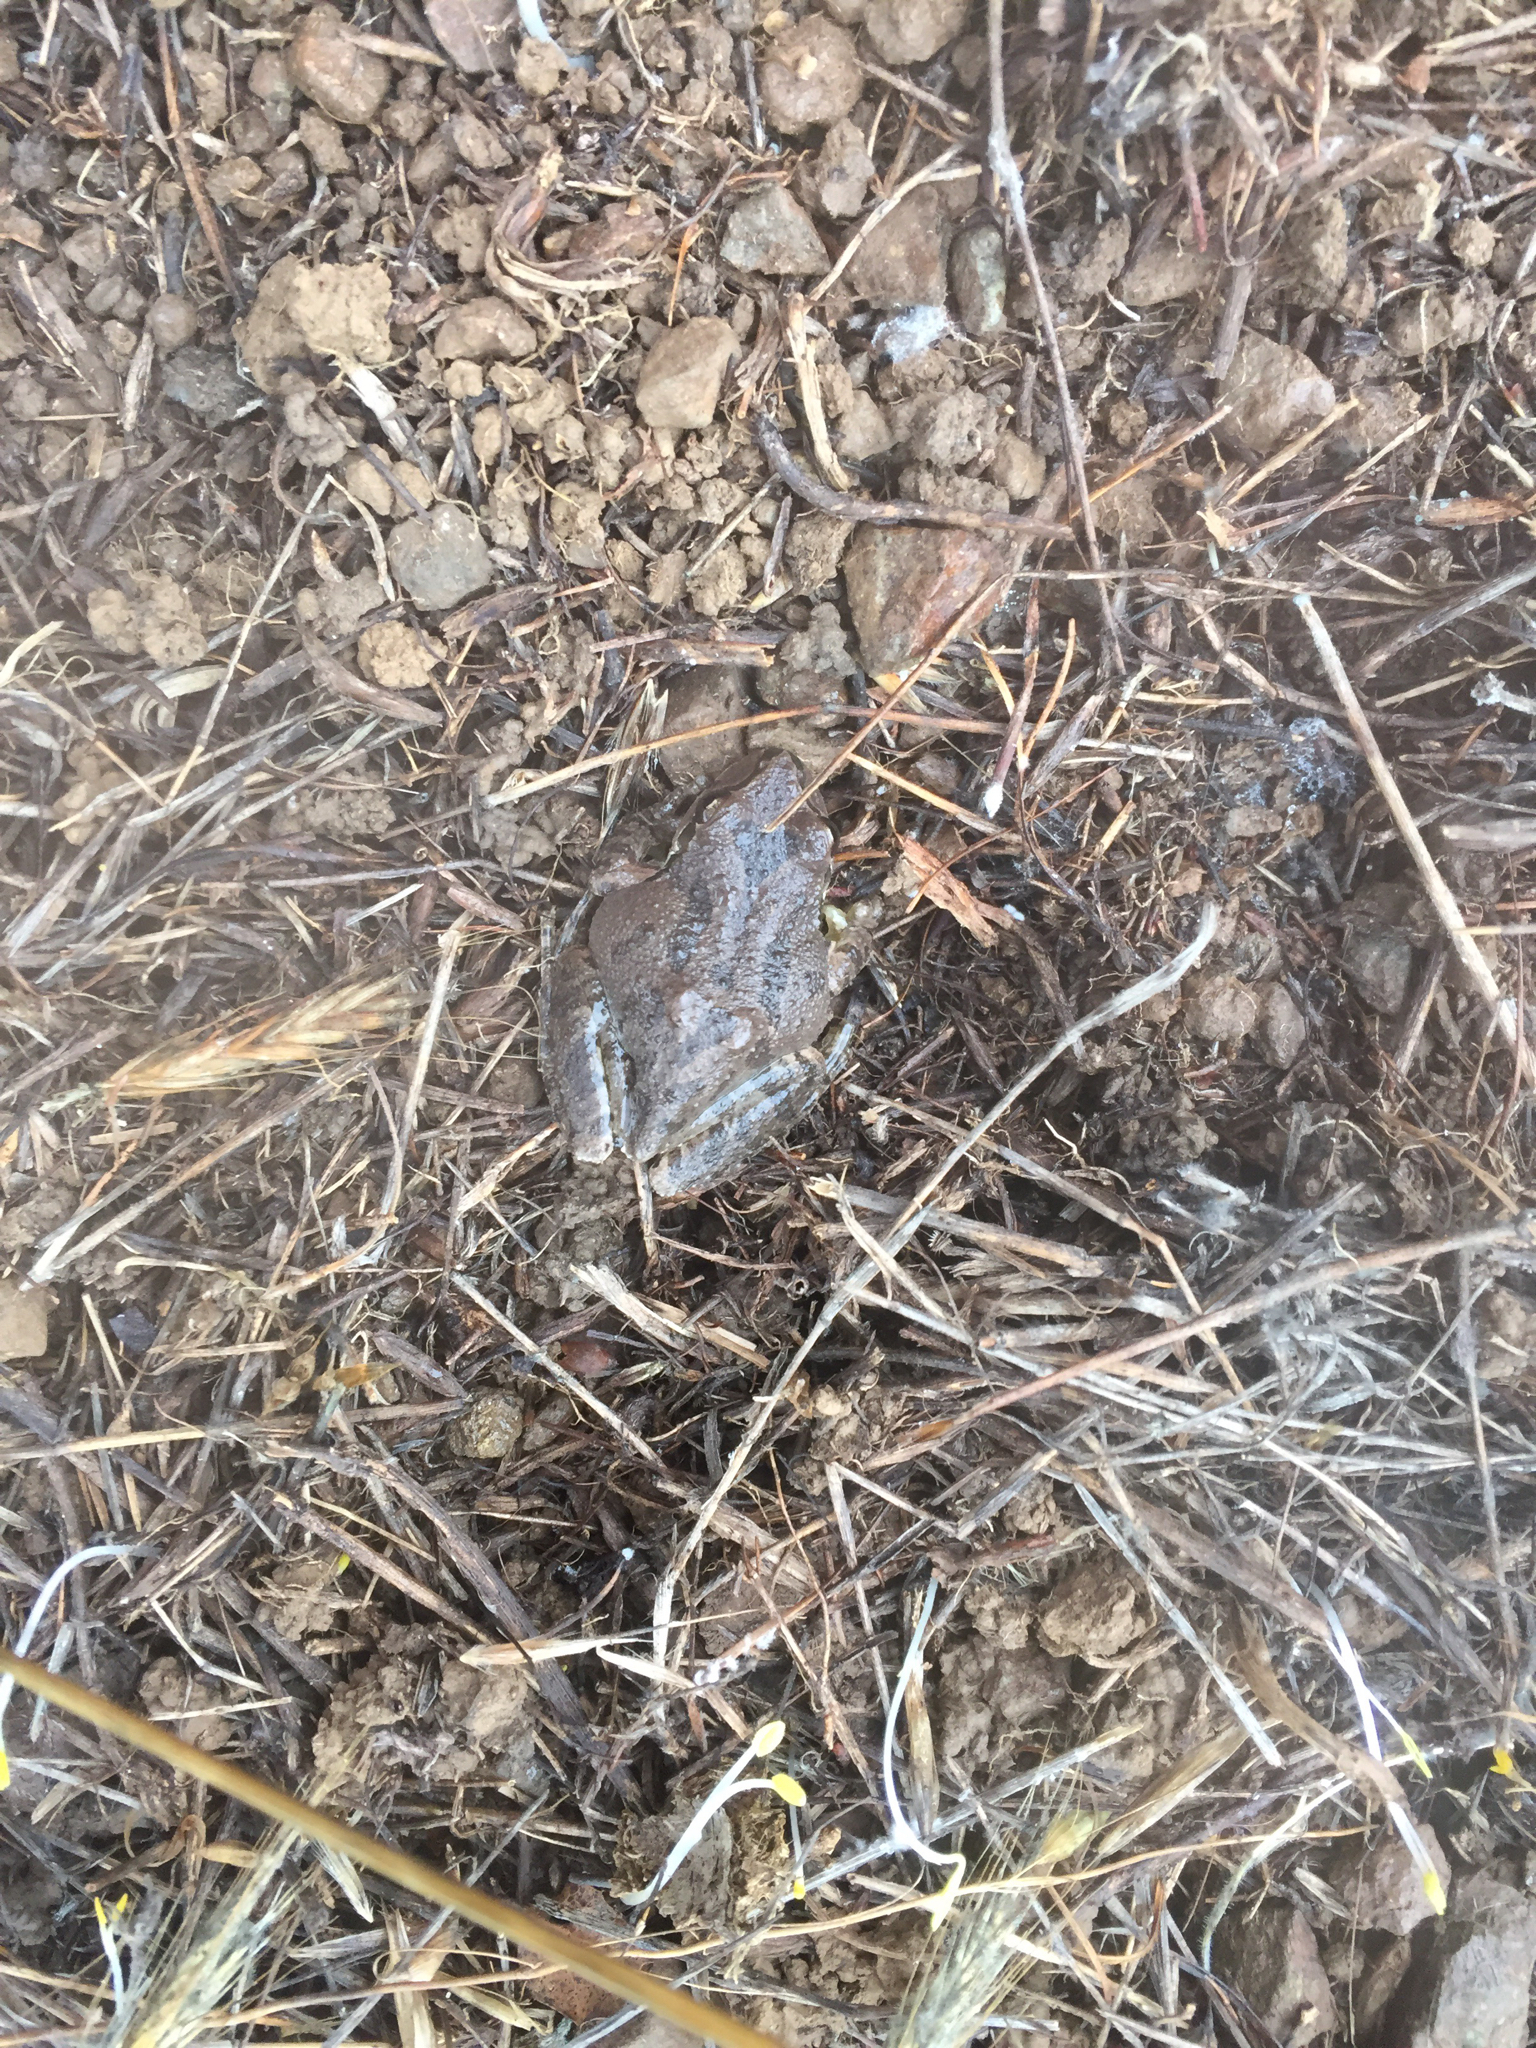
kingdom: Animalia
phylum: Chordata
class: Amphibia
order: Anura
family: Hylidae
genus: Pseudacris
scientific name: Pseudacris regilla
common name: Pacific chorus frog
